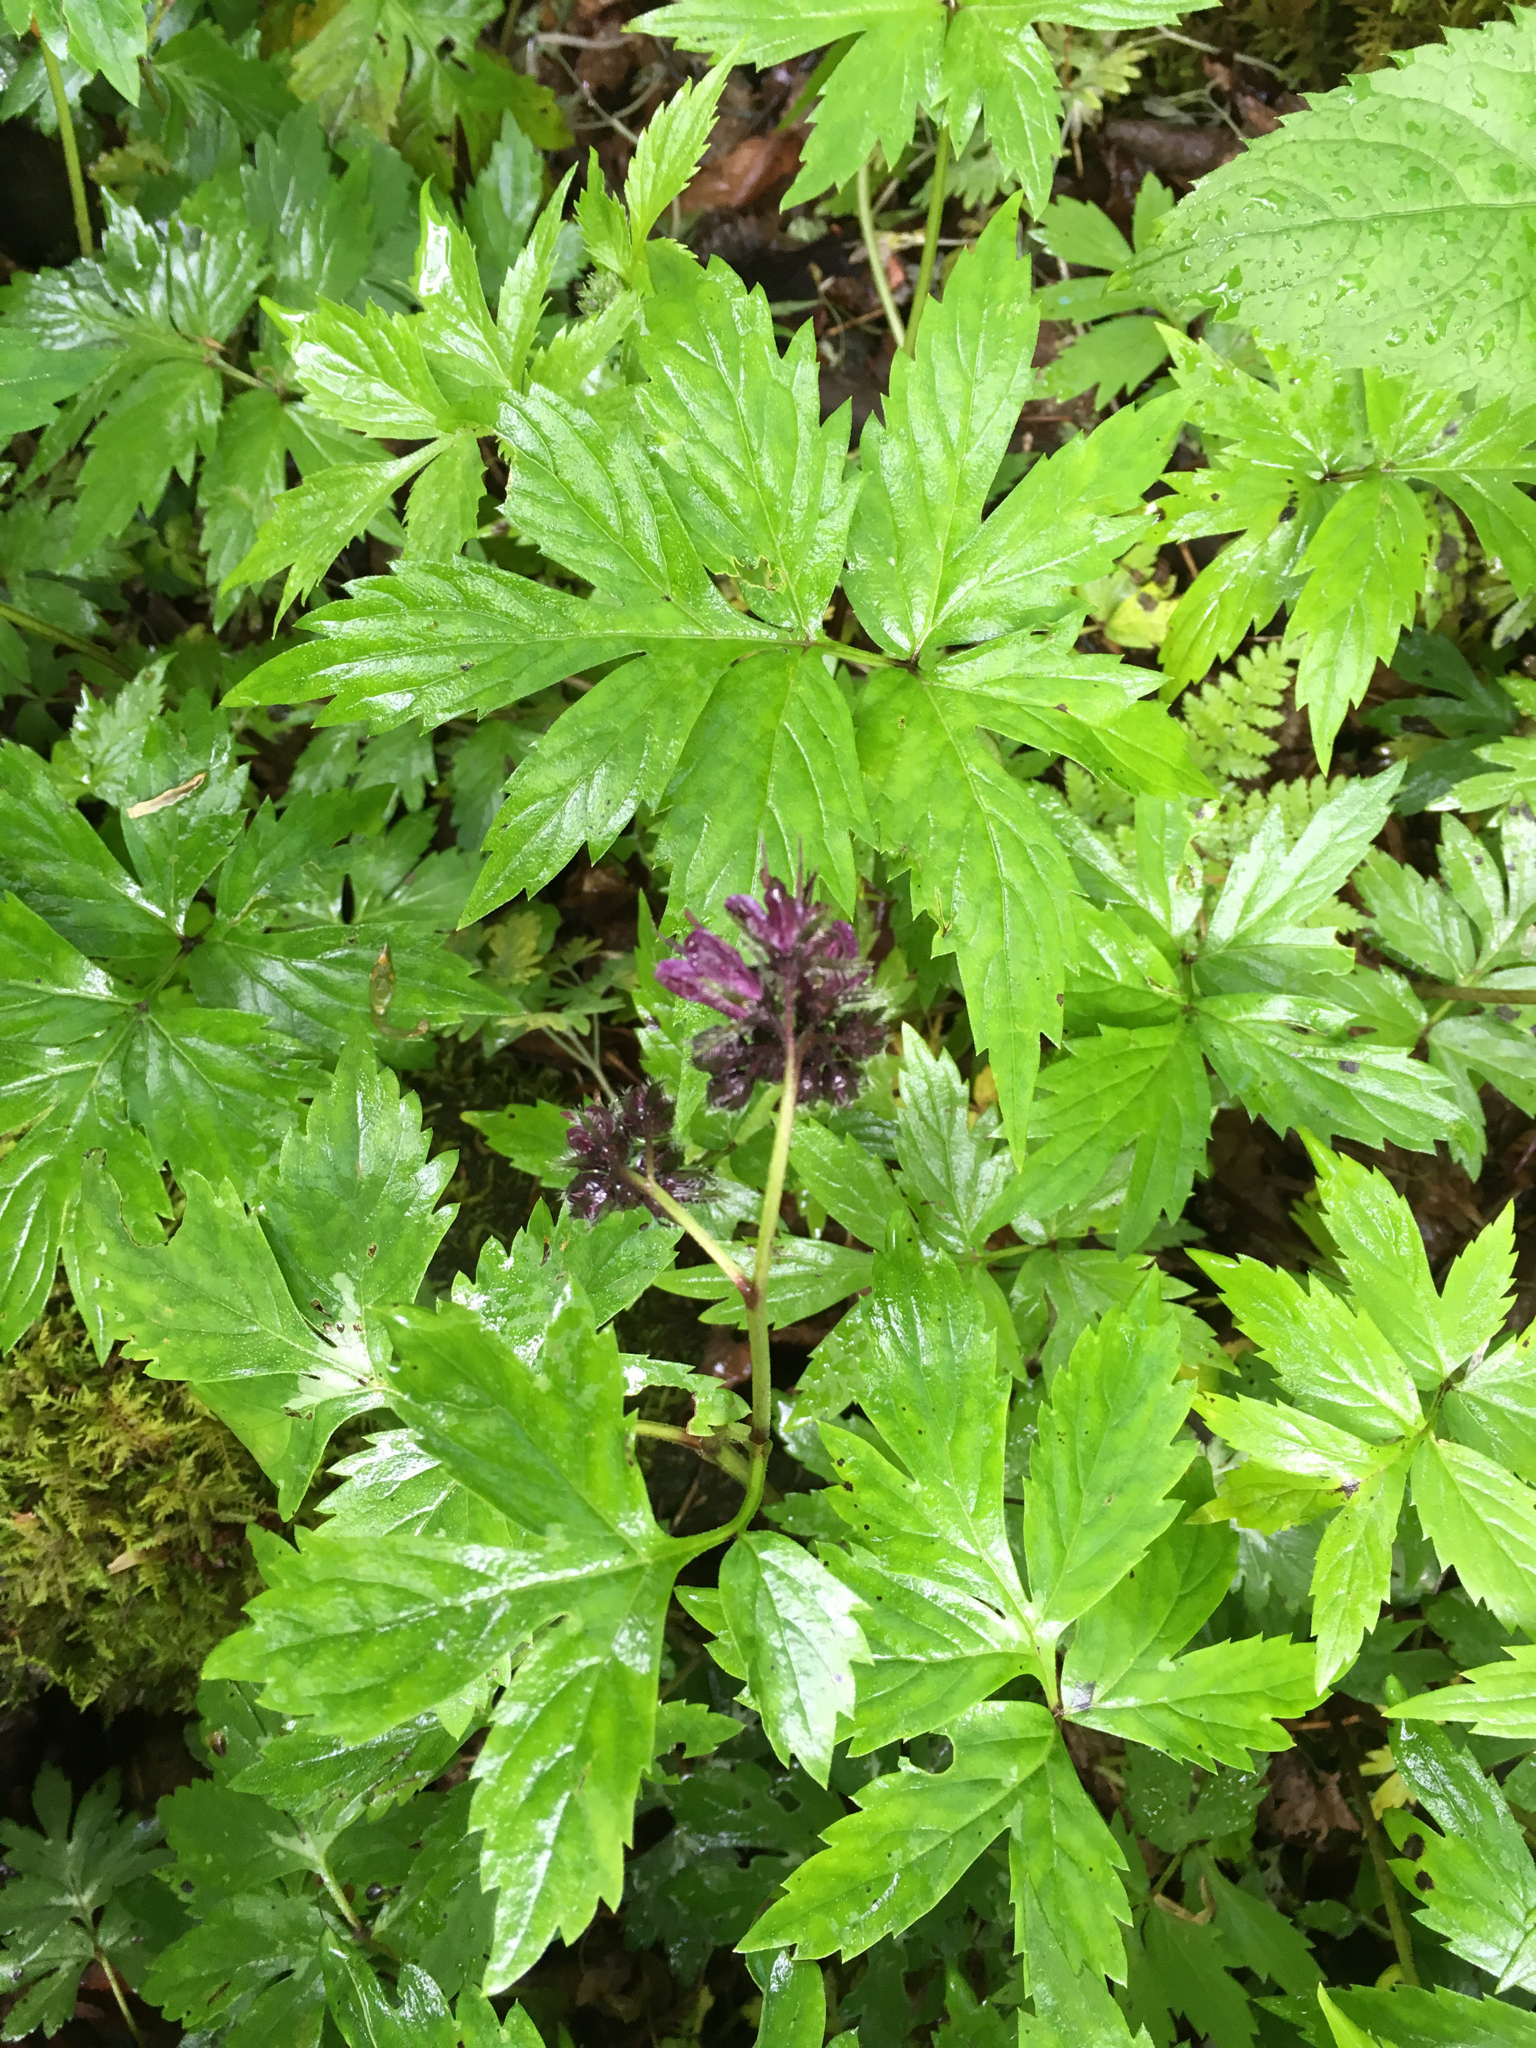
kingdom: Plantae
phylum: Tracheophyta
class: Magnoliopsida
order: Boraginales
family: Hydrophyllaceae
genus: Hydrophyllum
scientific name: Hydrophyllum virginianum
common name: Virginia waterleaf
